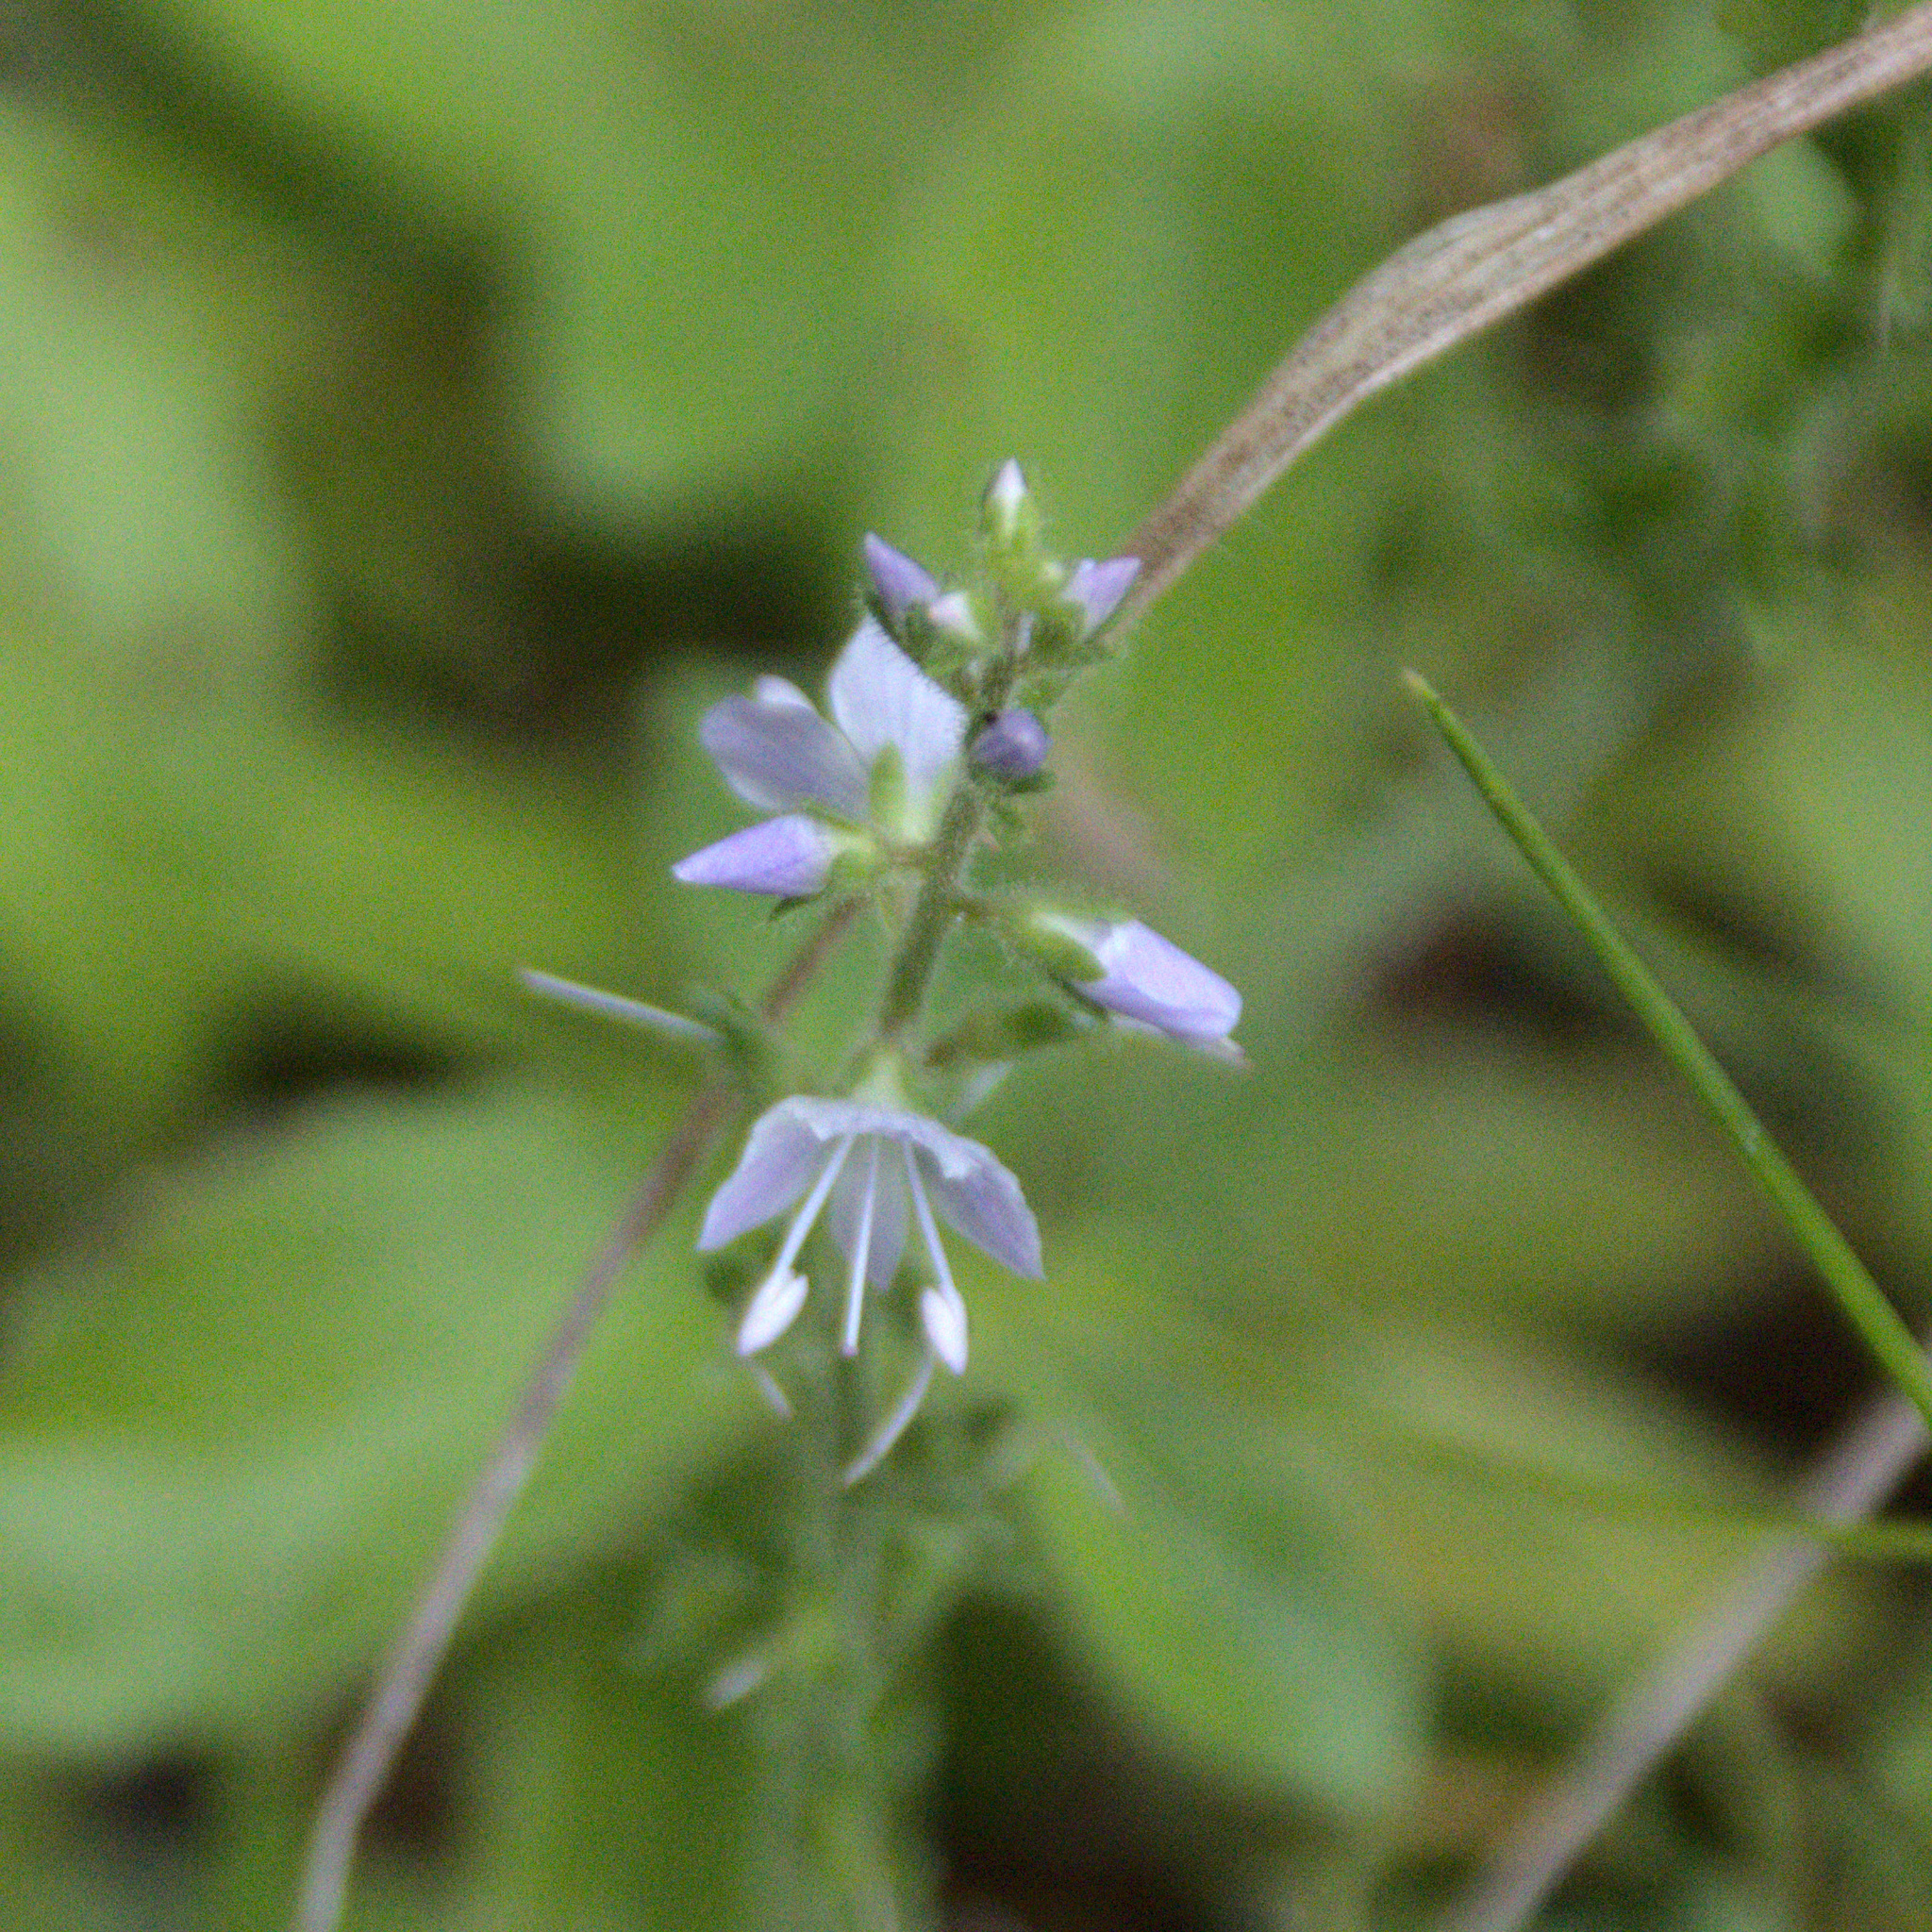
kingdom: Plantae
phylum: Tracheophyta
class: Magnoliopsida
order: Lamiales
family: Plantaginaceae
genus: Veronica
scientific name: Veronica officinalis
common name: Common speedwell
